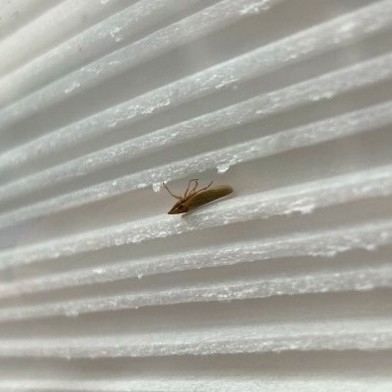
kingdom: Animalia
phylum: Arthropoda
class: Insecta
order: Hemiptera
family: Cicadellidae
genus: Draeculacephala
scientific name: Draeculacephala
